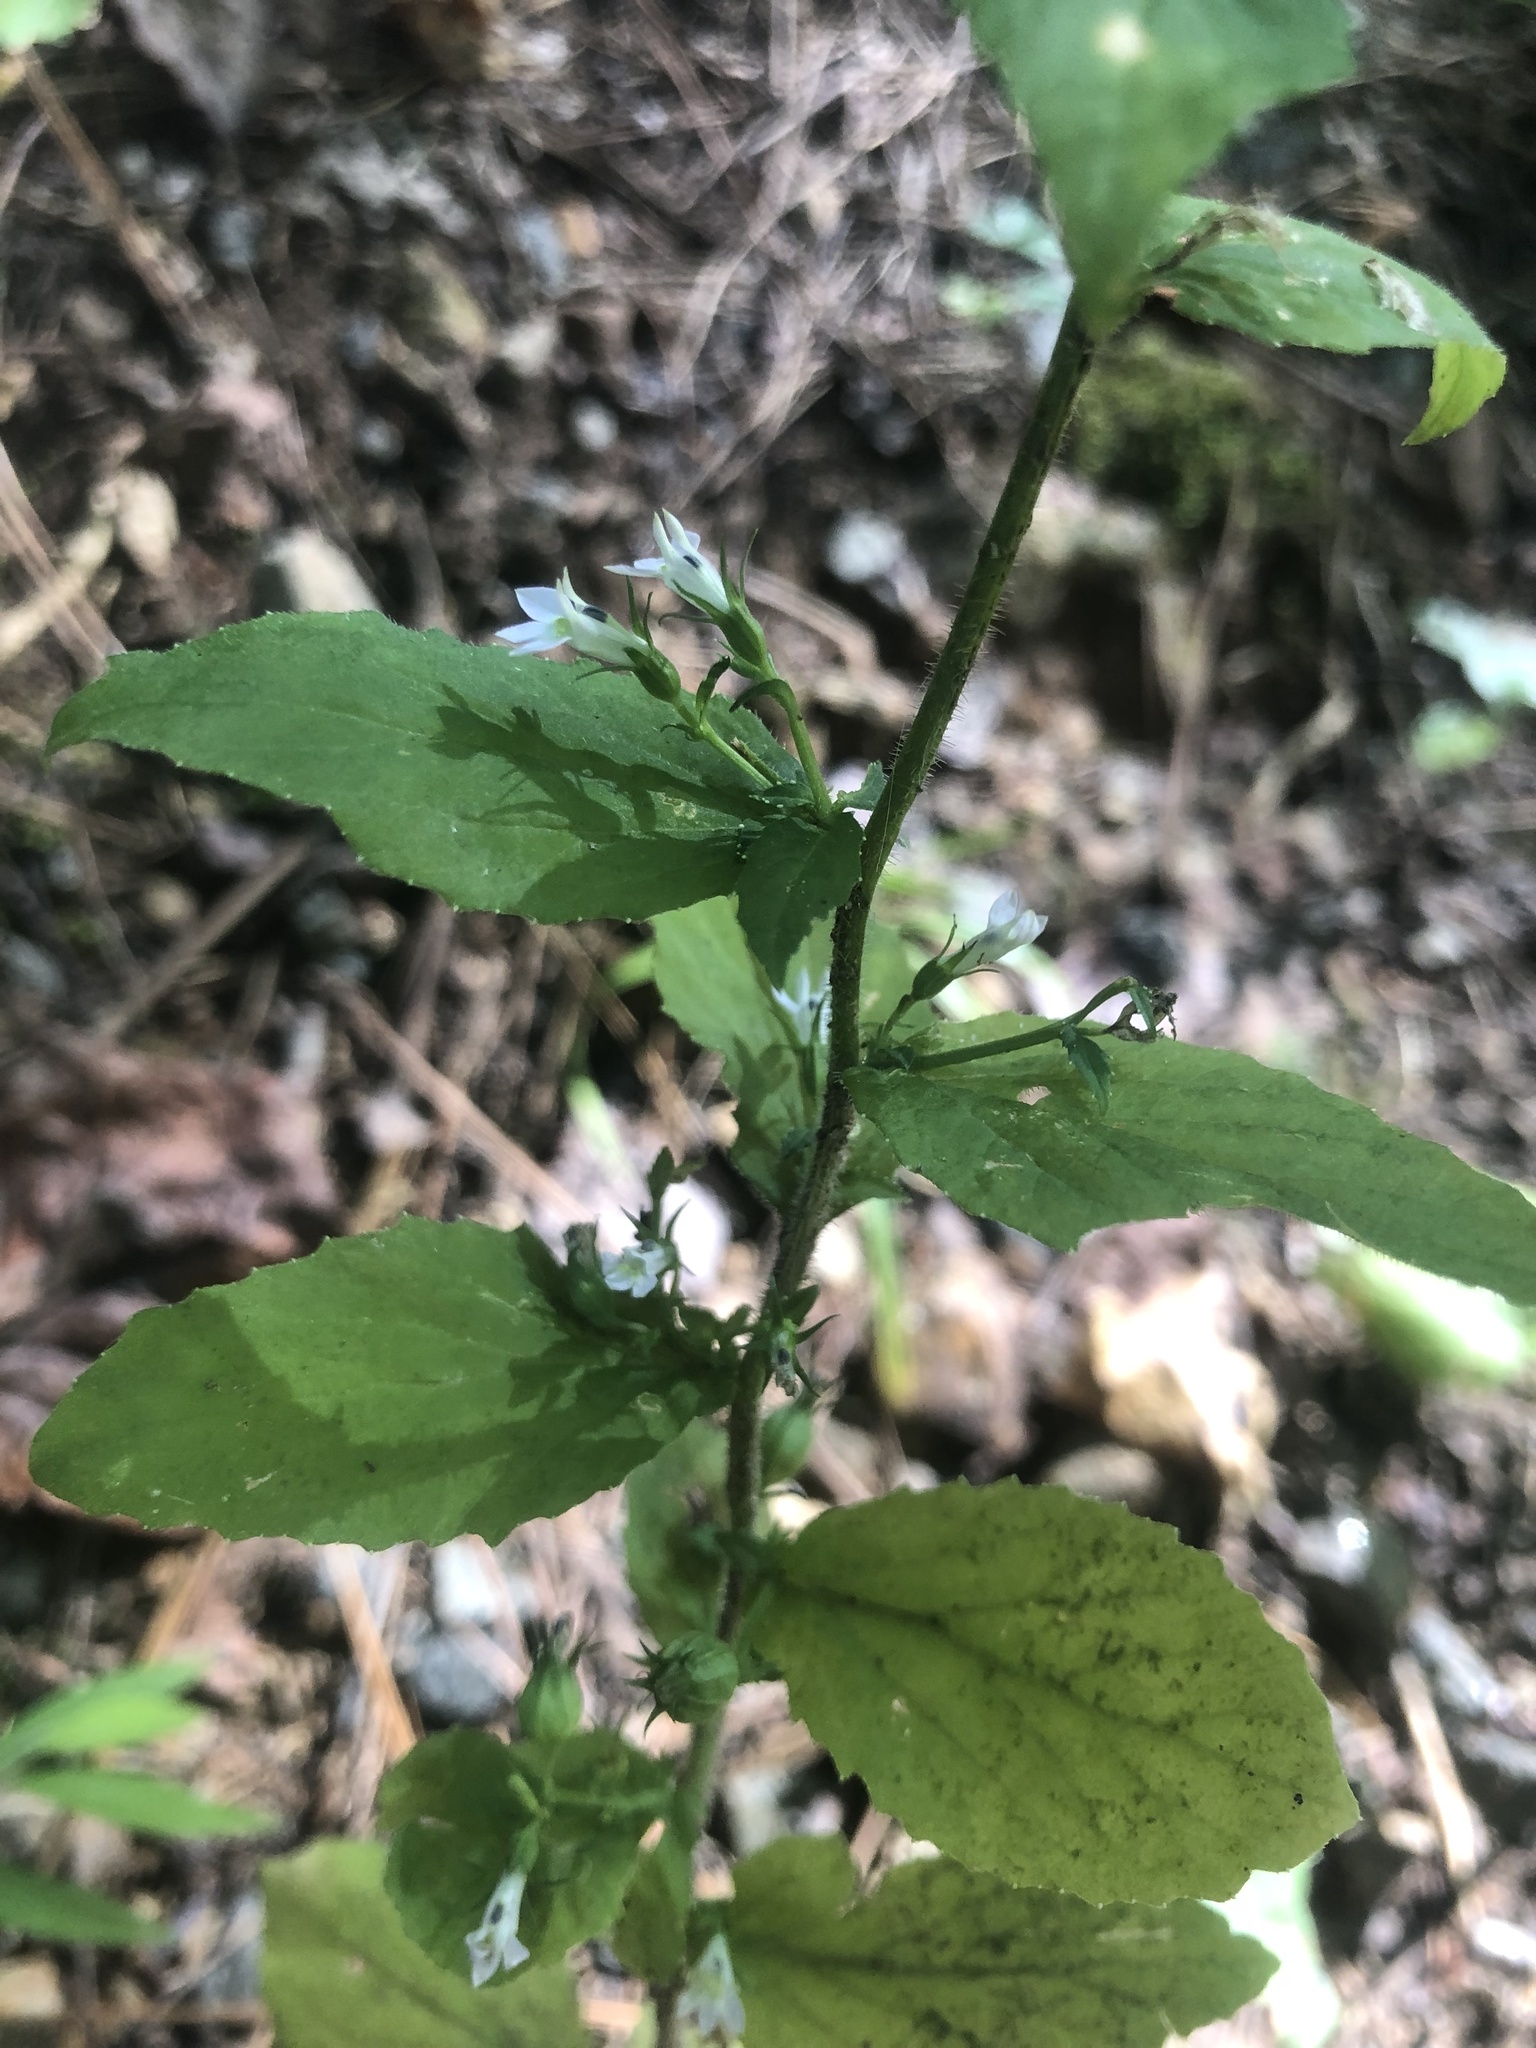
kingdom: Plantae
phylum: Tracheophyta
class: Magnoliopsida
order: Asterales
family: Campanulaceae
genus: Lobelia
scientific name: Lobelia inflata
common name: Indian tobacco
